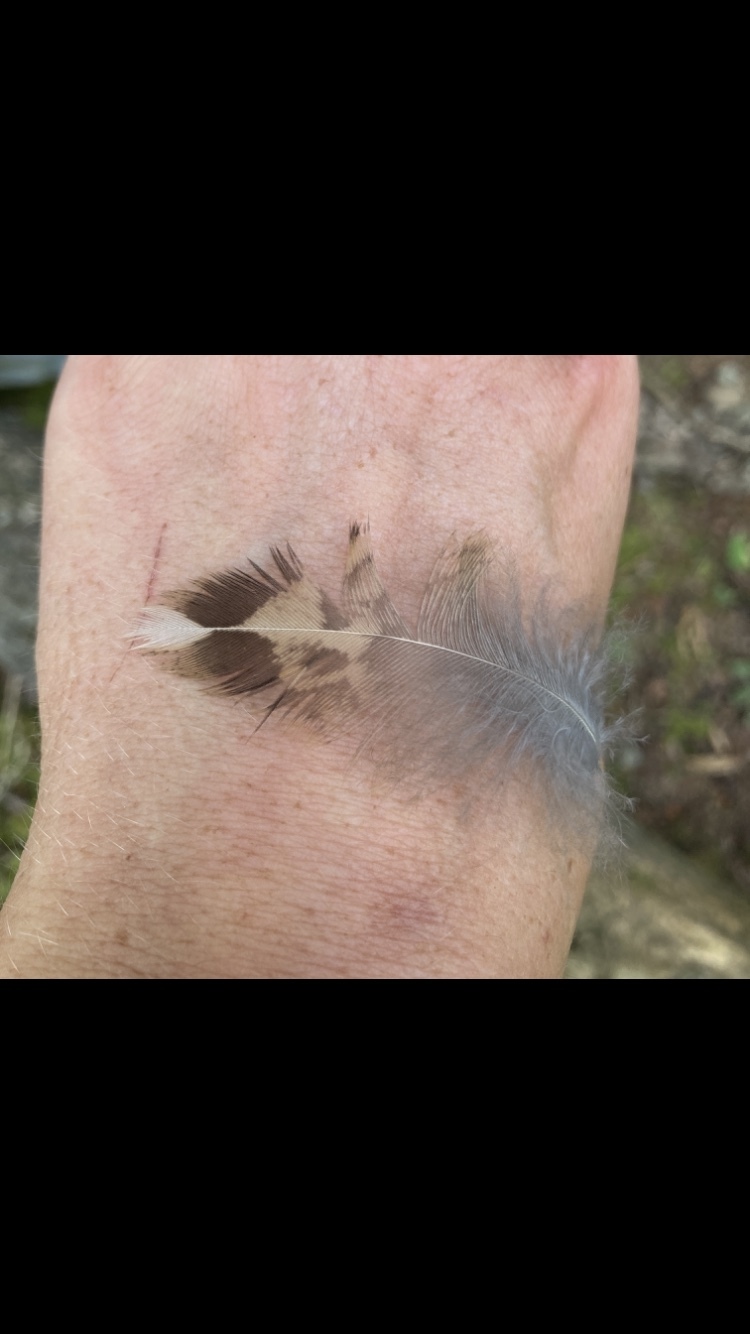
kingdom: Animalia
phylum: Chordata
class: Aves
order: Galliformes
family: Phasianidae
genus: Bonasa
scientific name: Bonasa umbellus
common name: Ruffed grouse
